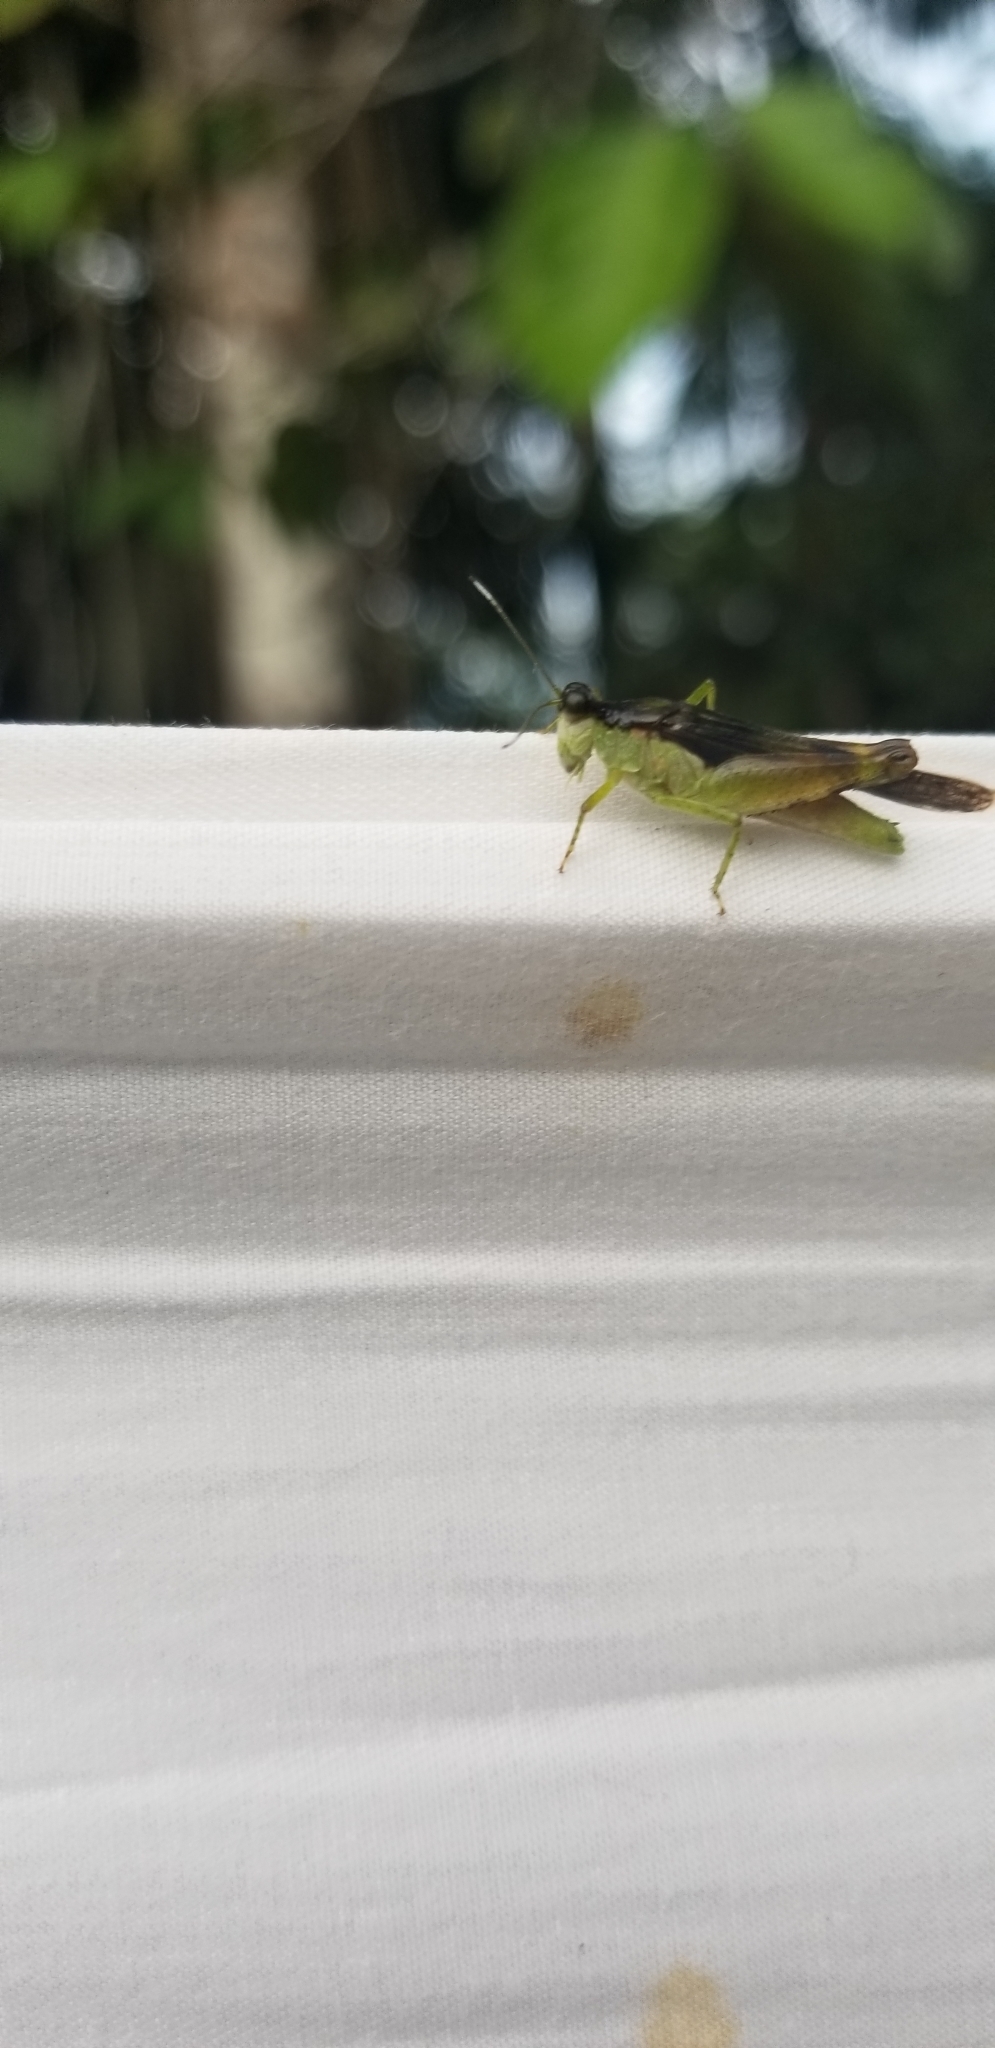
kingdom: Animalia
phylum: Arthropoda
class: Insecta
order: Orthoptera
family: Acrididae
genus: Paulinia
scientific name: Paulinia acuminata
